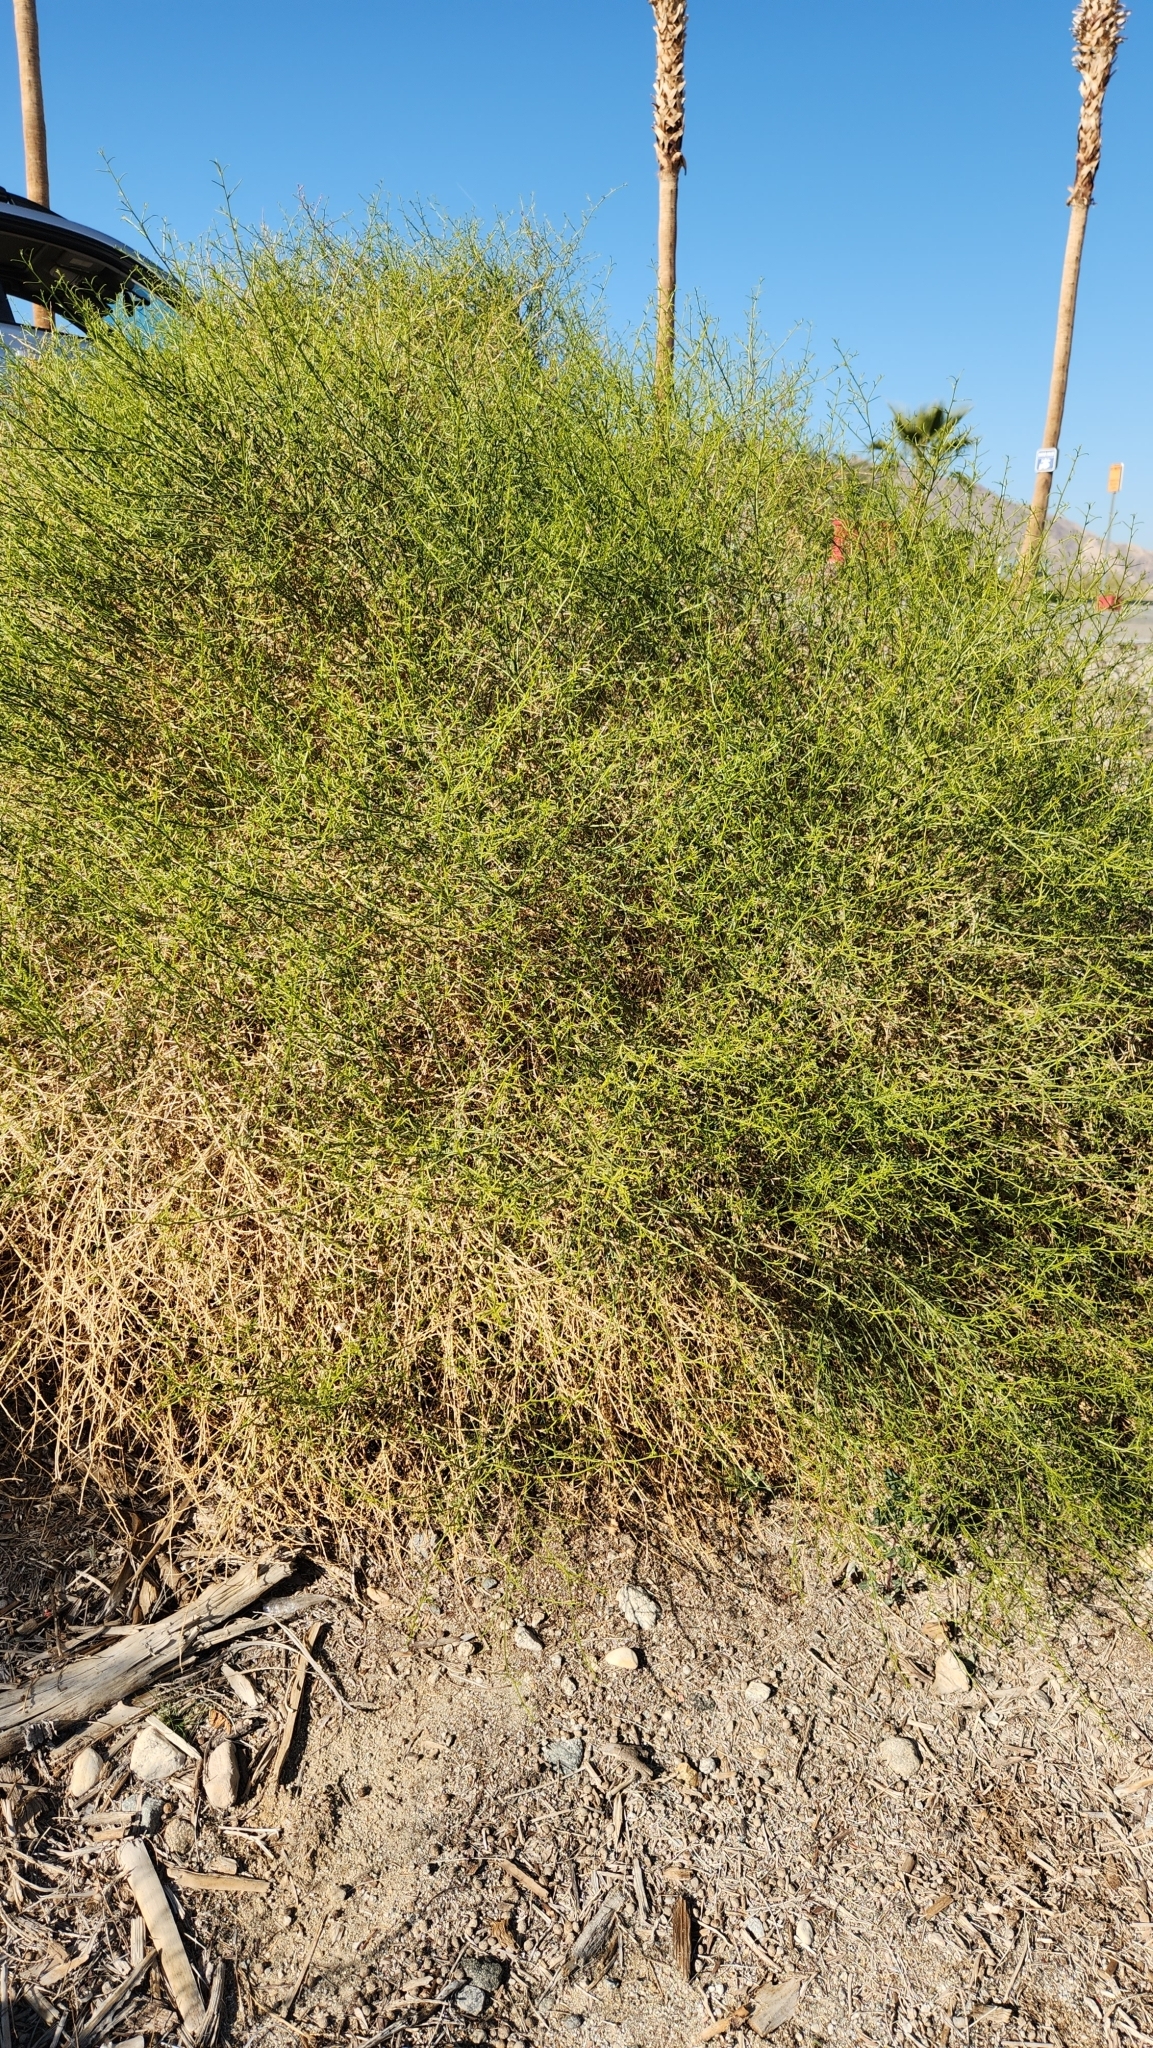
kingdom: Plantae
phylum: Tracheophyta
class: Magnoliopsida
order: Asterales
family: Asteraceae
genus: Ambrosia
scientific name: Ambrosia salsola
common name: Burrobrush
